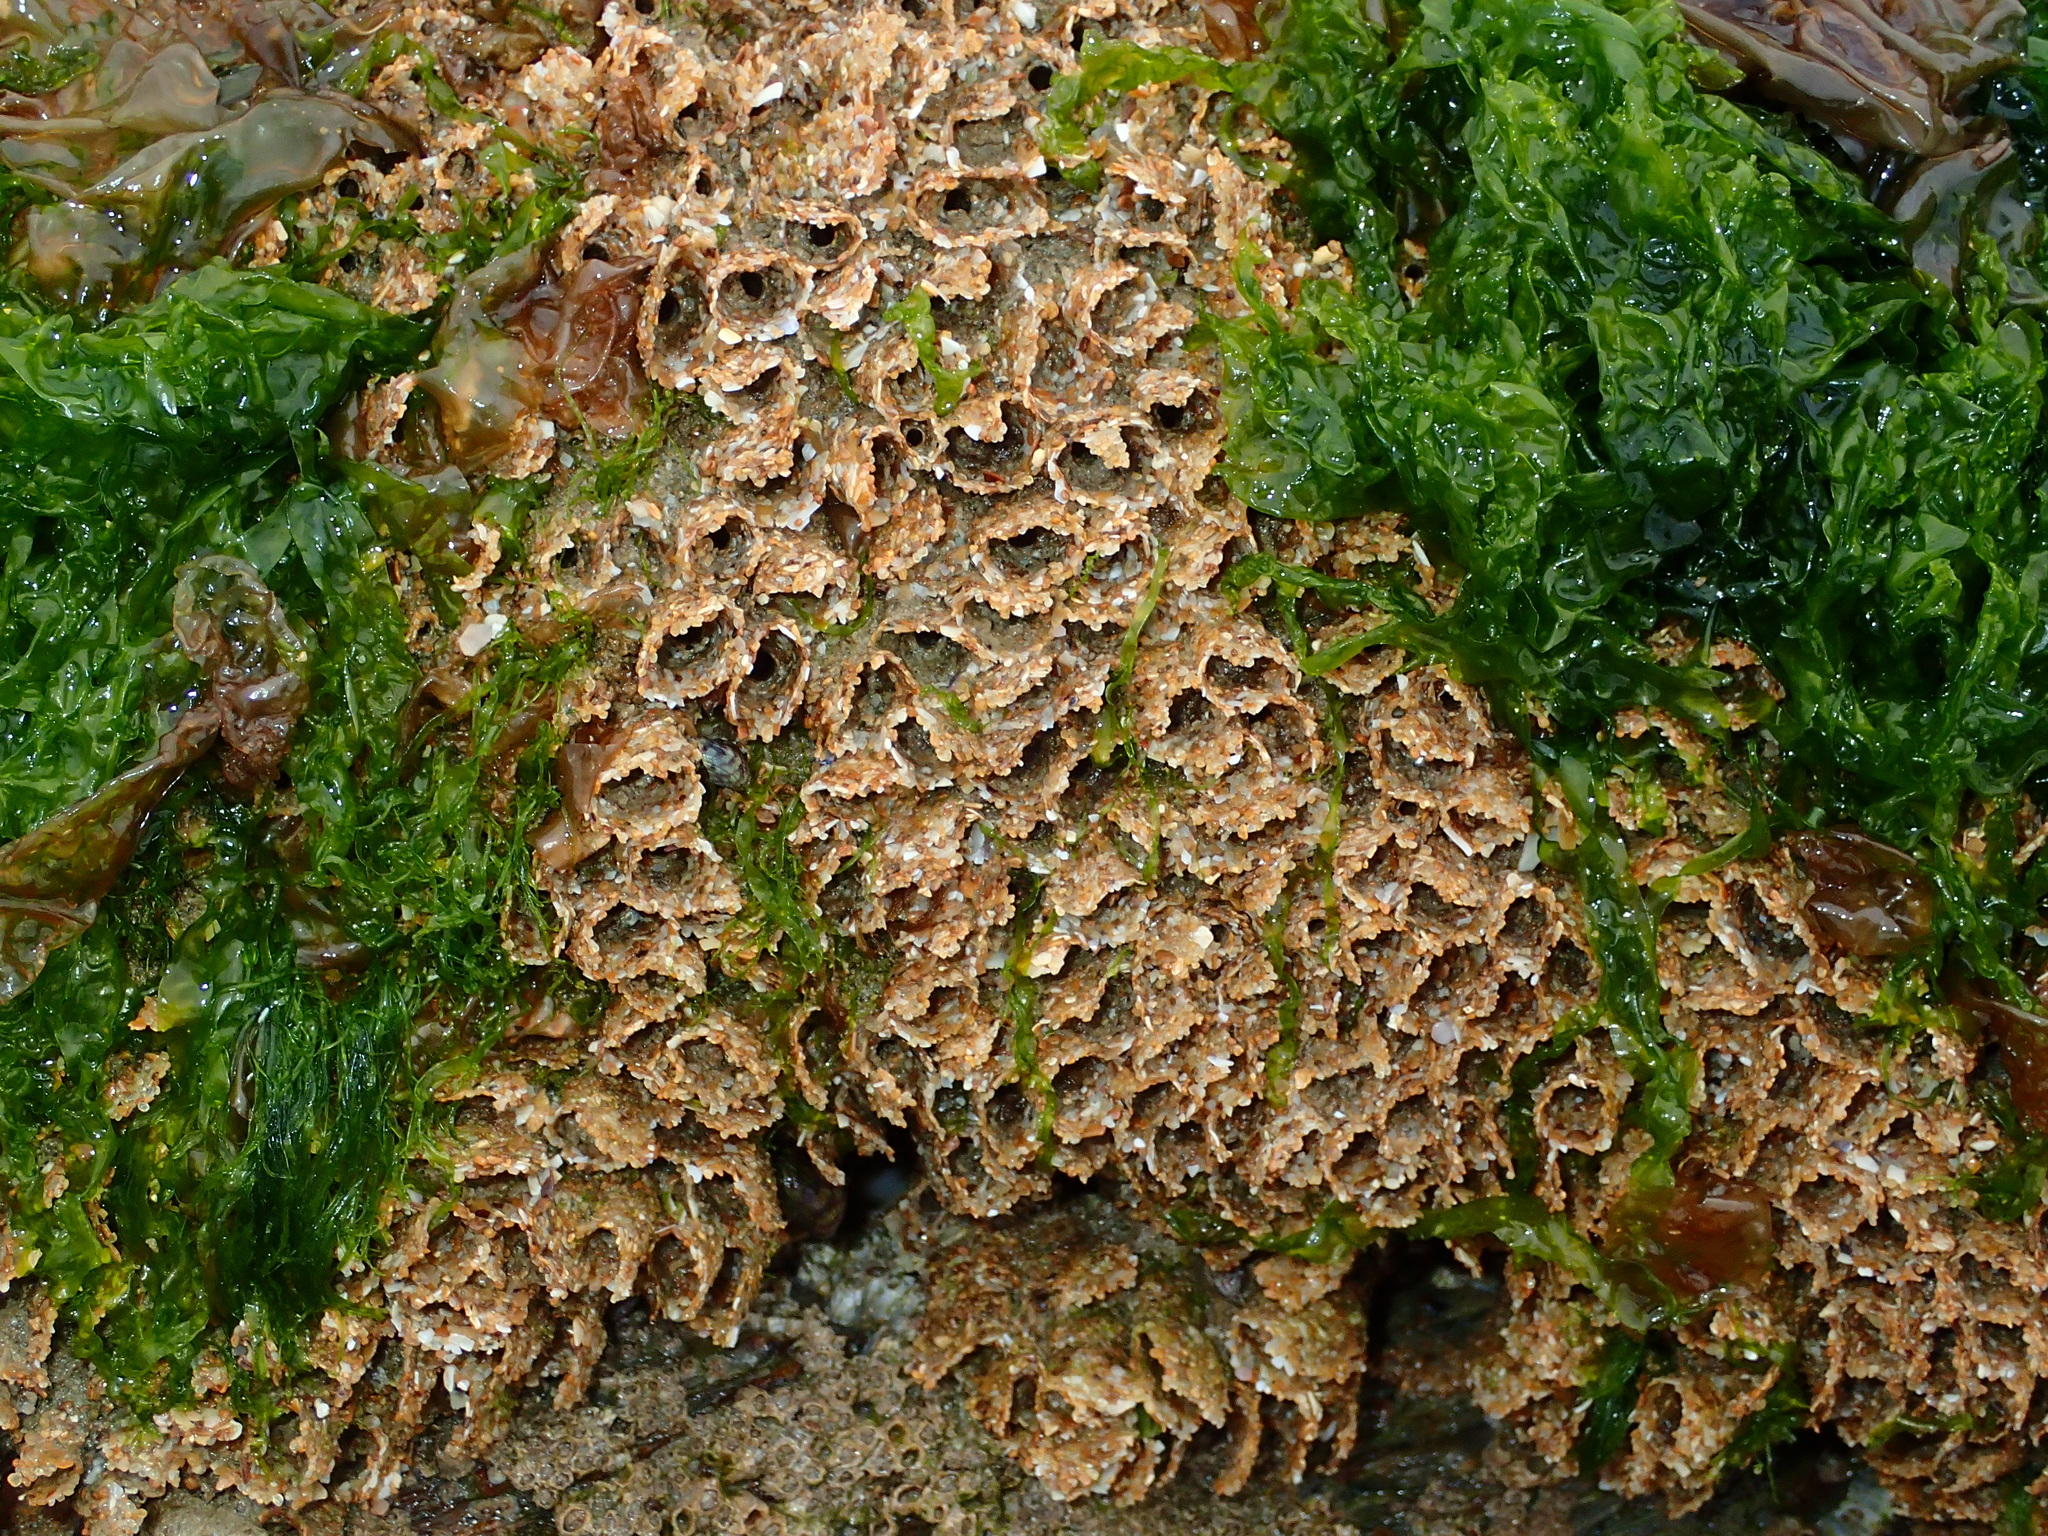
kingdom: Animalia
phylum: Annelida
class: Polychaeta
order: Sabellida
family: Sabellariidae
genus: Sabellaria
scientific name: Sabellaria alveolata
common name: Honeycomb worm
